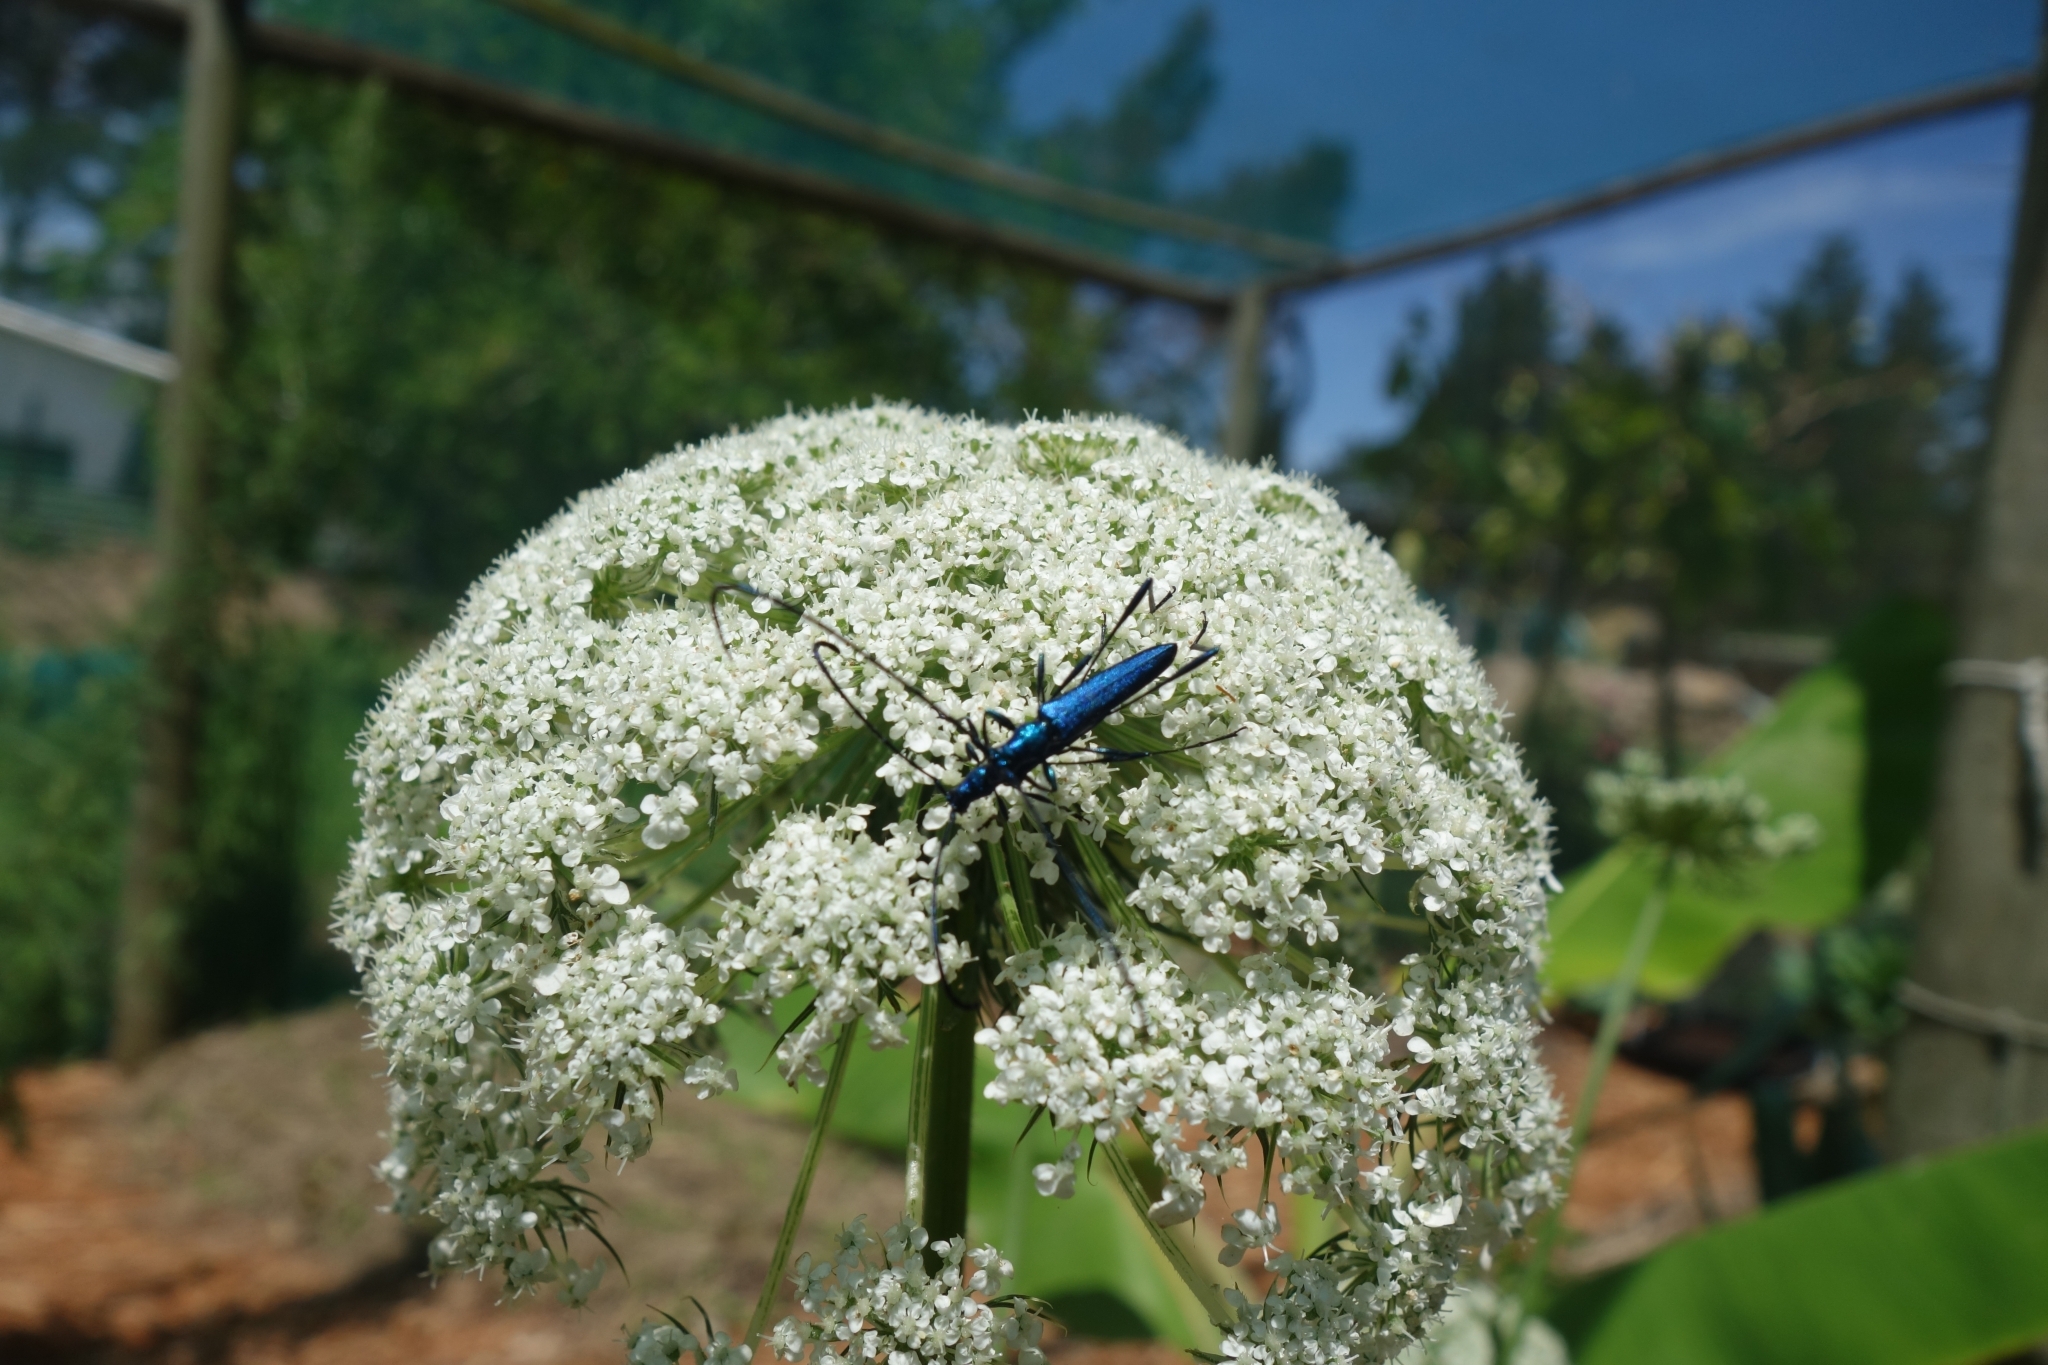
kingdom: Animalia
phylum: Arthropoda
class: Insecta
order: Coleoptera
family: Cerambycidae
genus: Promeces
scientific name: Promeces longipes
